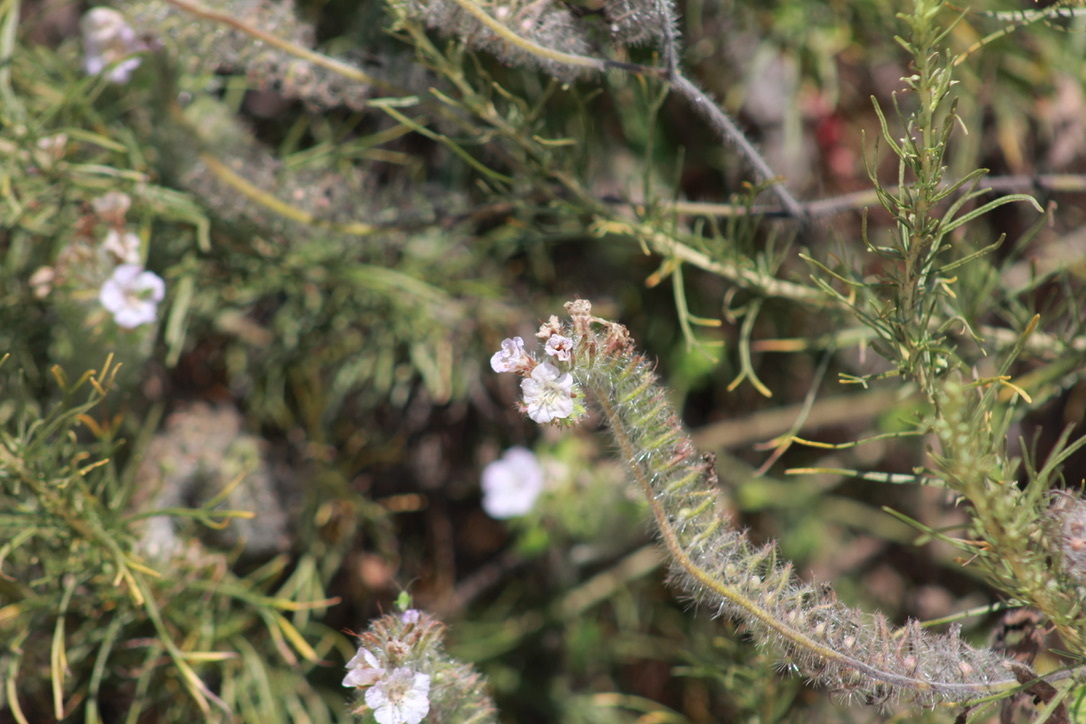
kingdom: Plantae
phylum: Tracheophyta
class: Magnoliopsida
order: Boraginales
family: Hydrophyllaceae
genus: Phacelia
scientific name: Phacelia cicutaria
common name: Caterpillar phacelia
